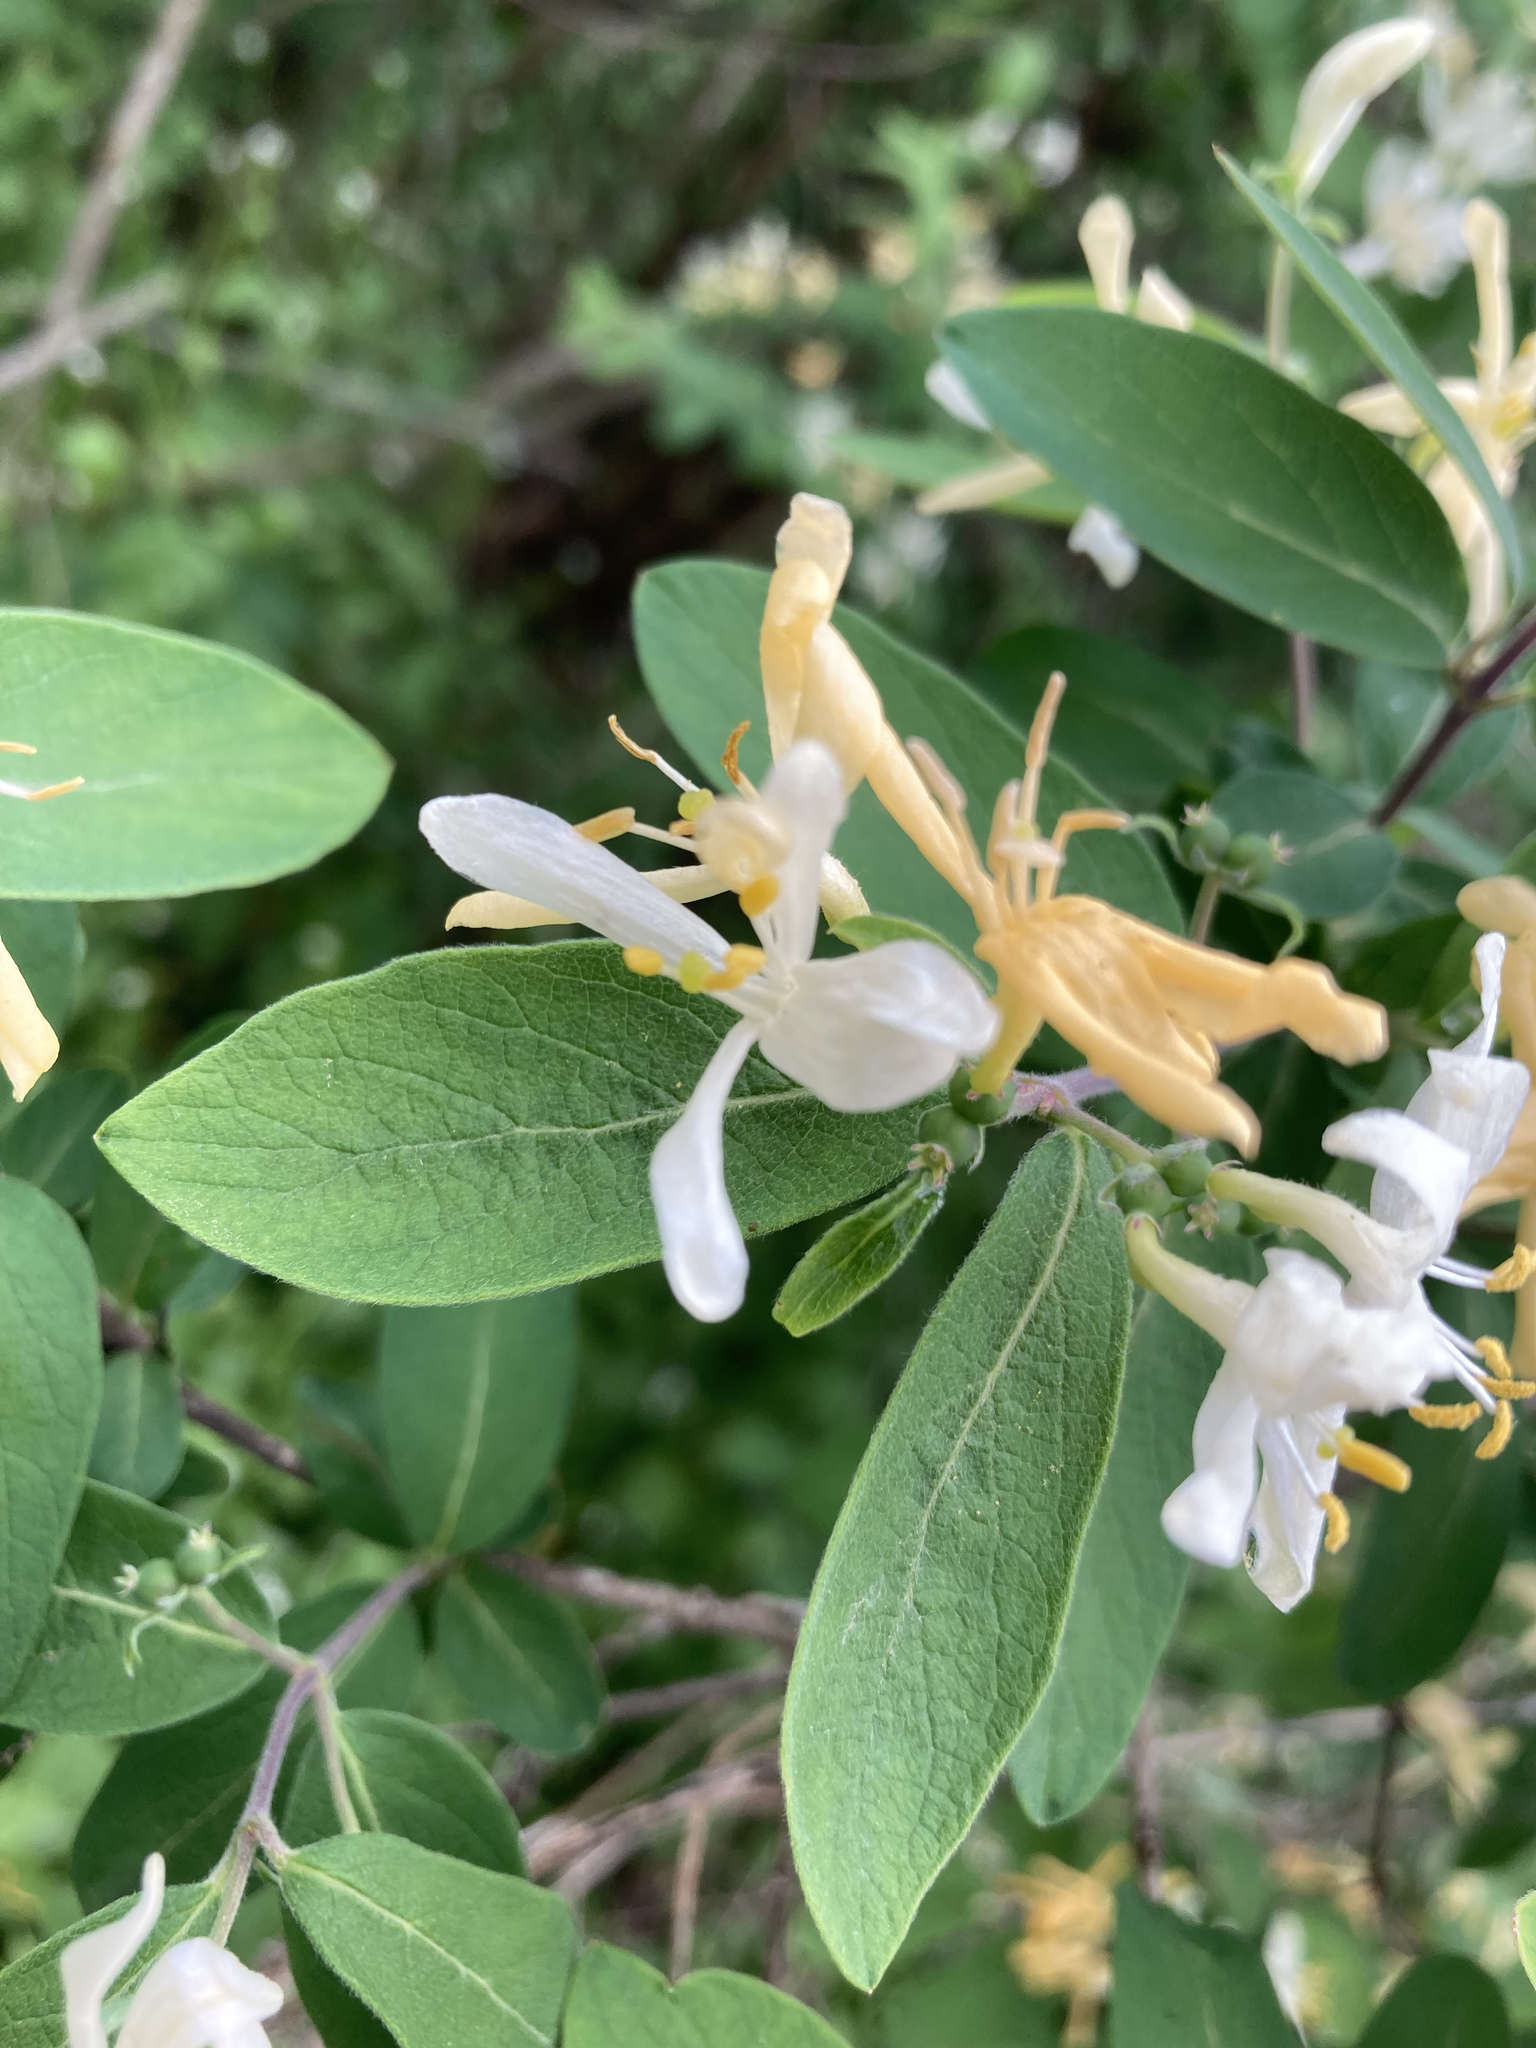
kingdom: Plantae
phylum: Tracheophyta
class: Magnoliopsida
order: Dipsacales
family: Caprifoliaceae
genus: Lonicera
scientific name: Lonicera morrowii
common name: Morrow's honeysuckle
